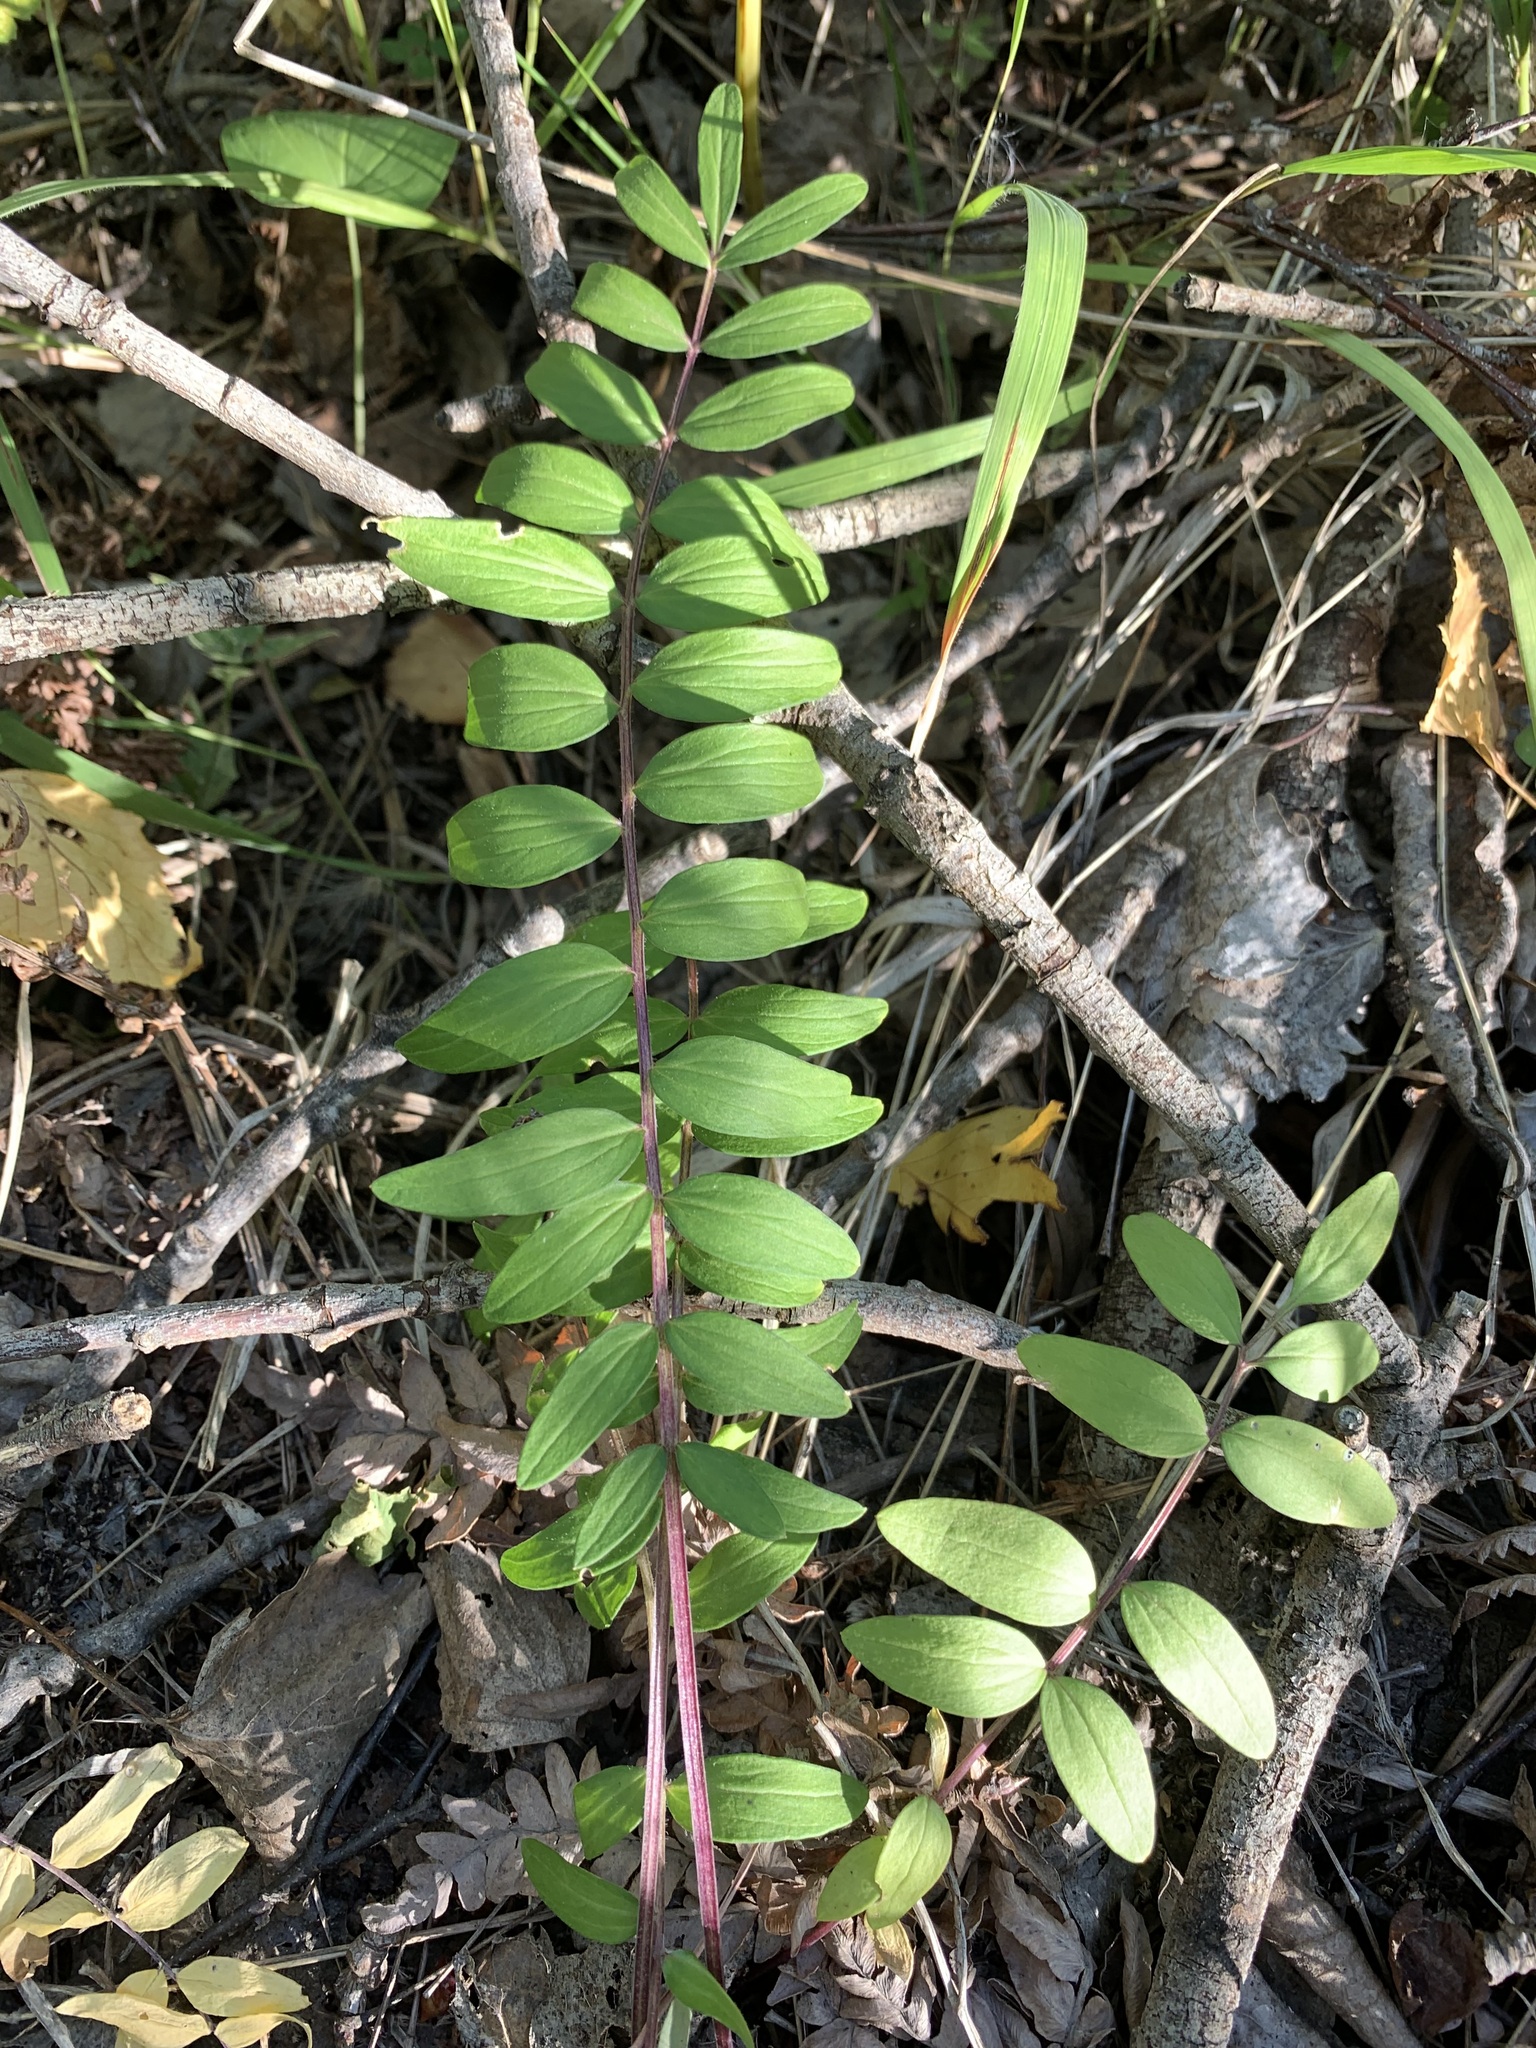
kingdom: Plantae
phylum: Tracheophyta
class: Magnoliopsida
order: Ericales
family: Polemoniaceae
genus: Polemonium
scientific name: Polemonium caeruleum
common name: Jacob's-ladder
